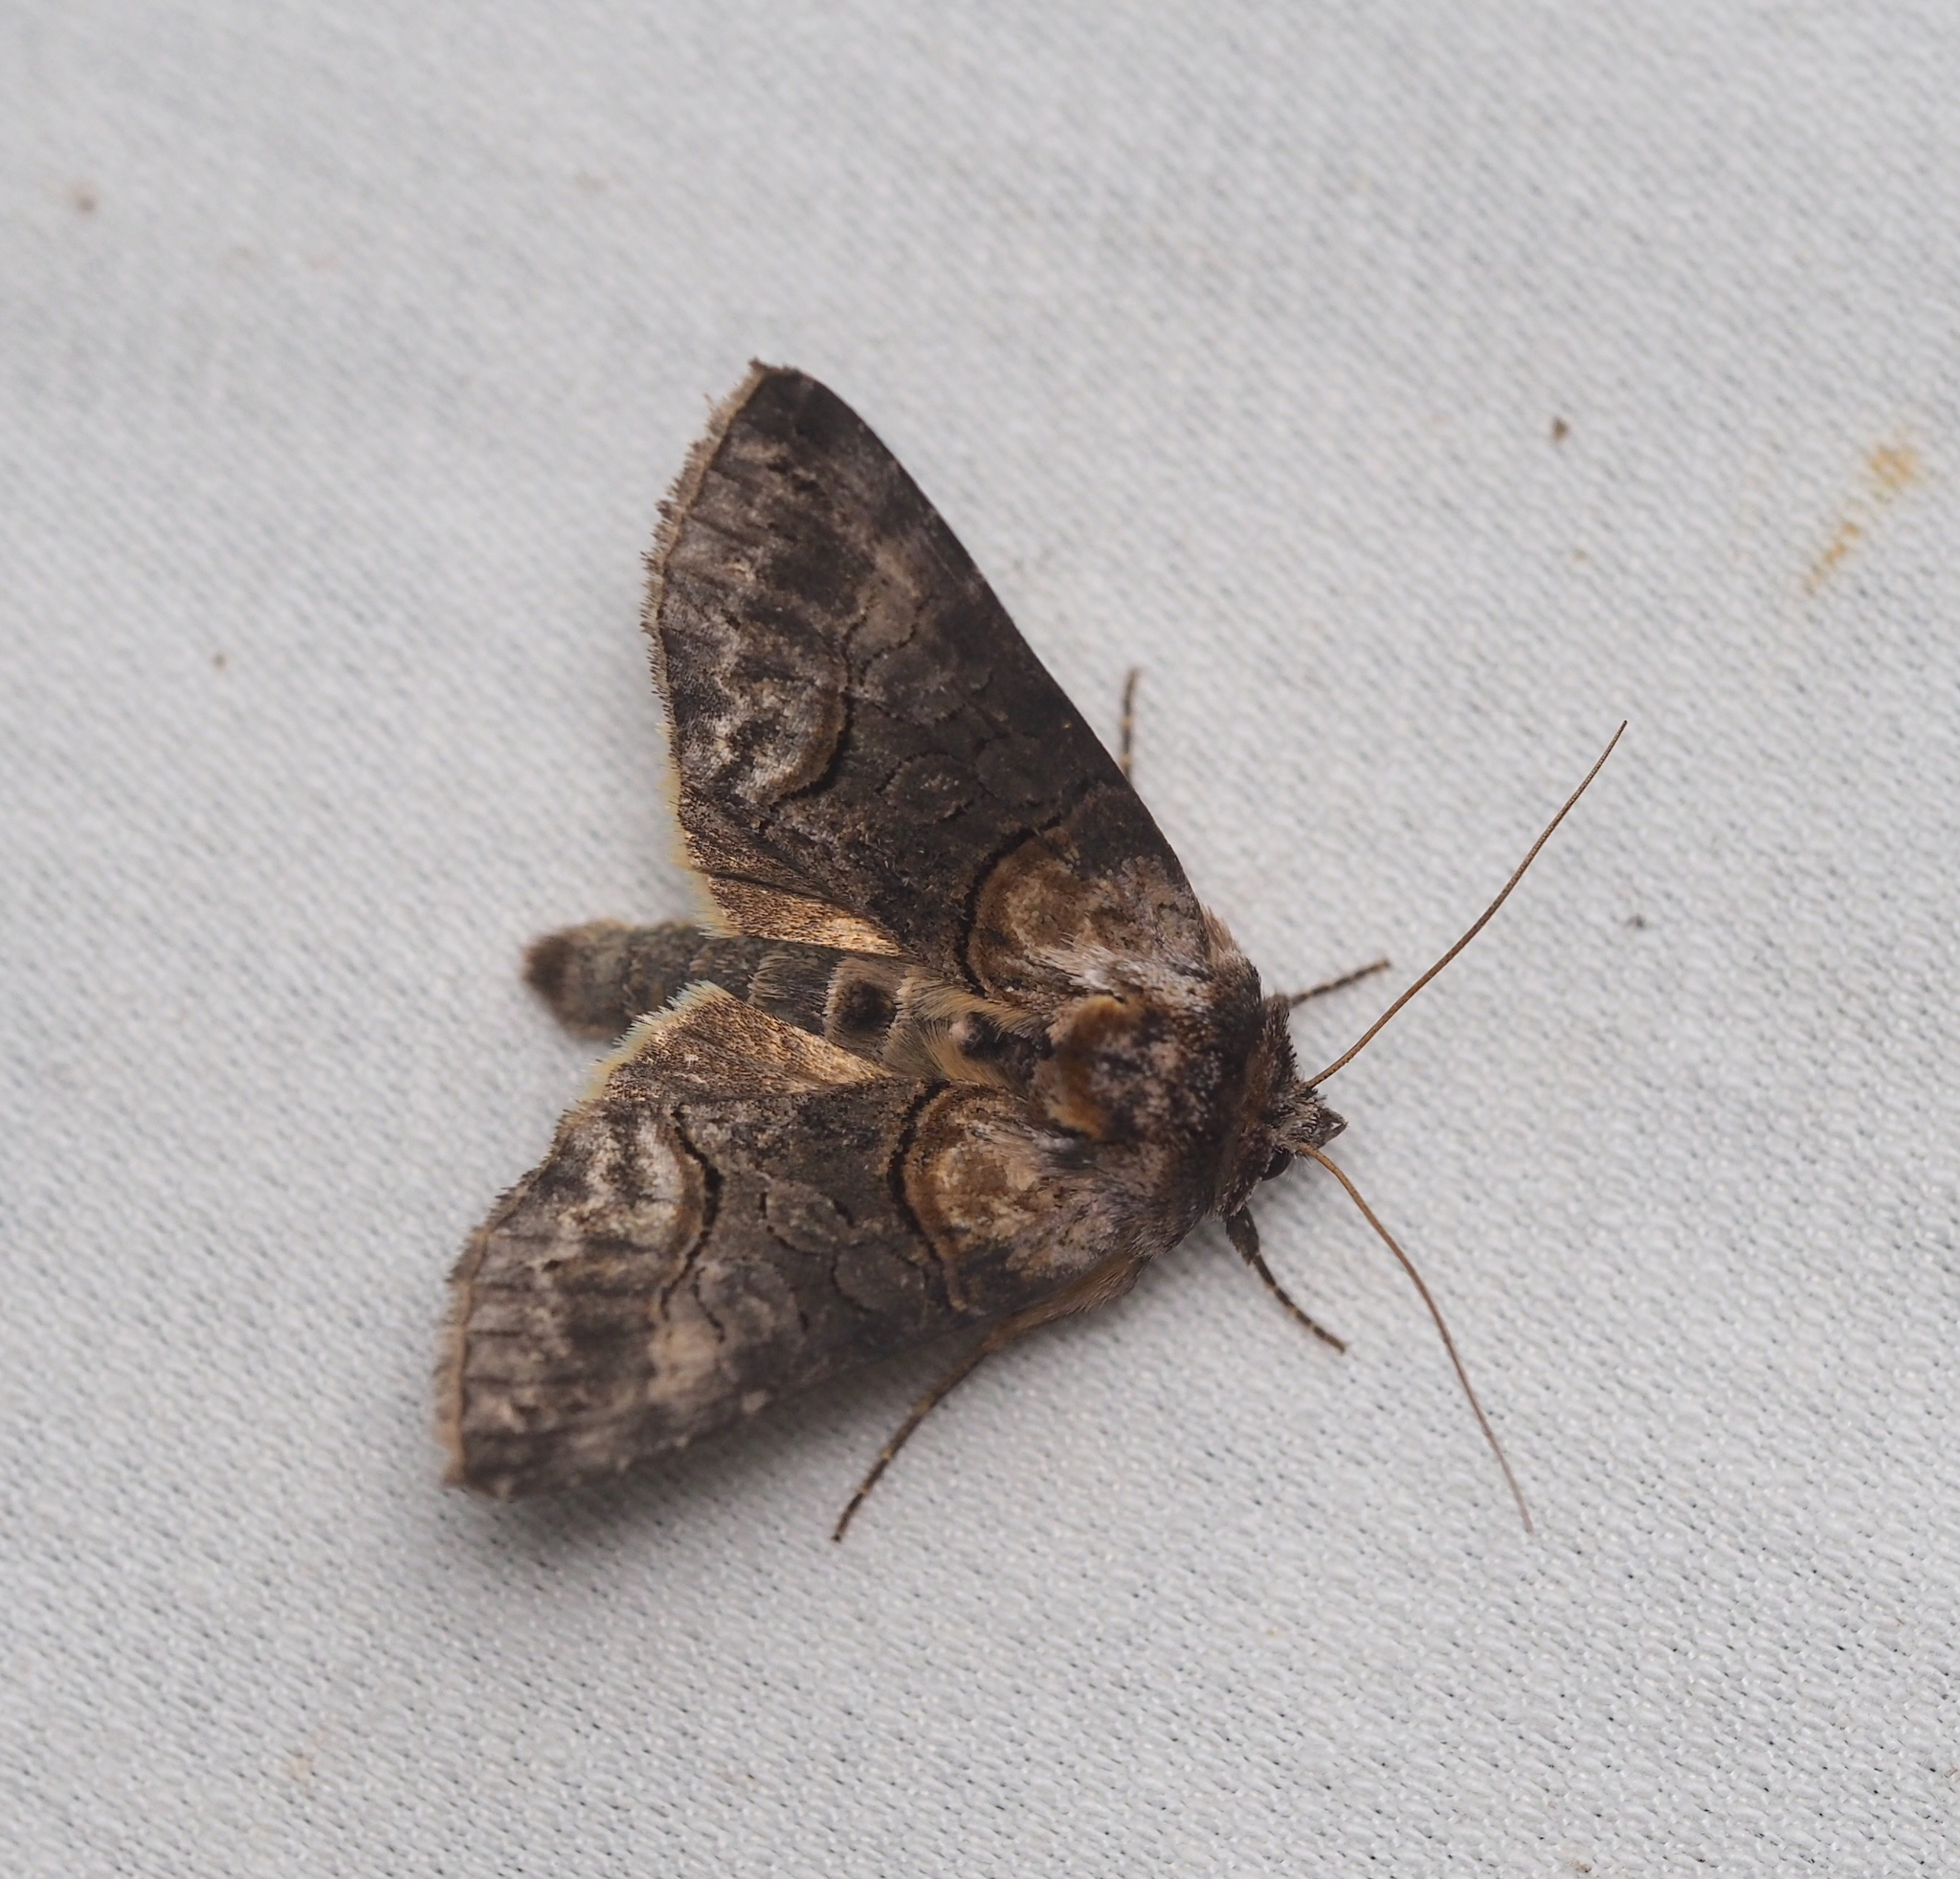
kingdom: Animalia
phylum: Arthropoda
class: Insecta
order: Lepidoptera
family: Noctuidae
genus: Abrostola
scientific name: Abrostola triplasia
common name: Dark spectacle
